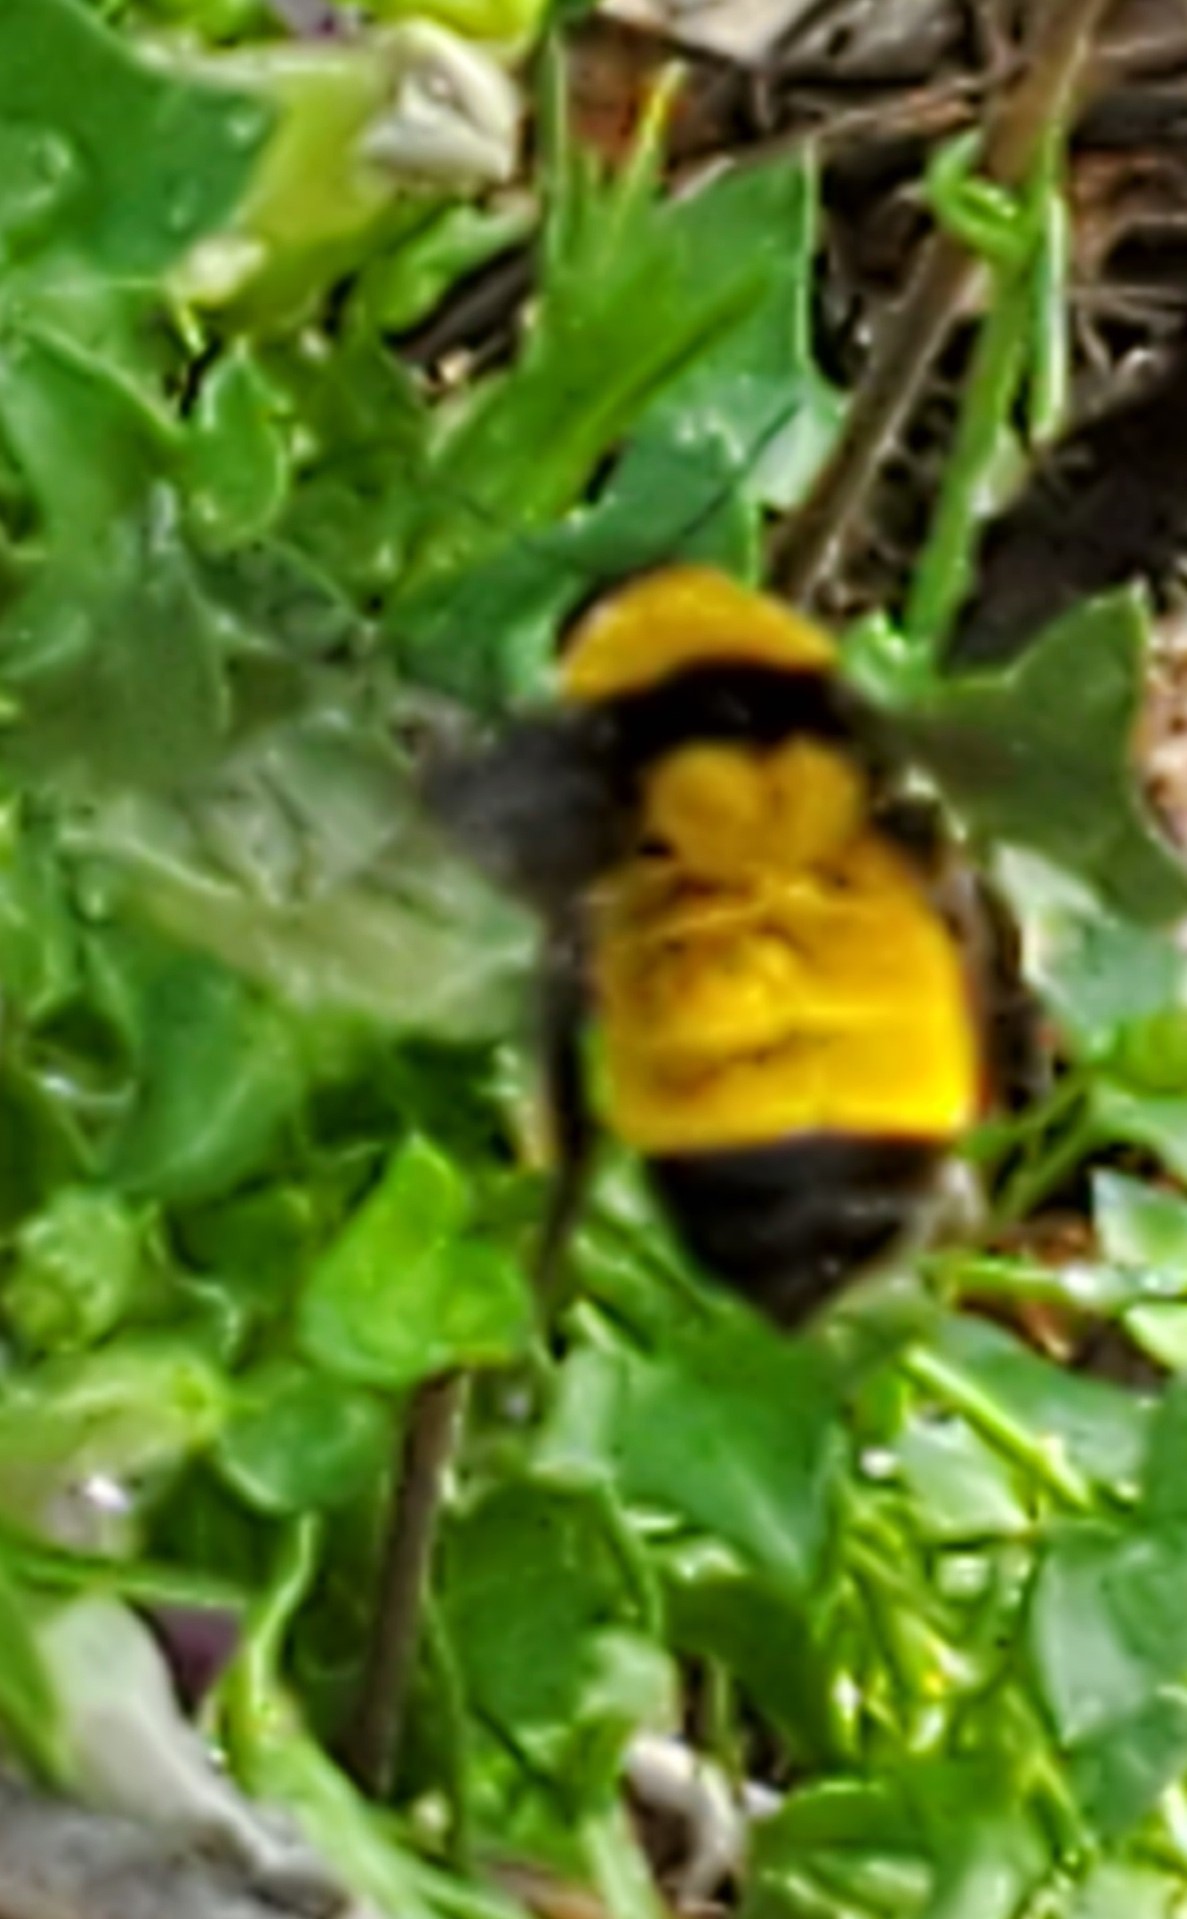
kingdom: Animalia
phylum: Arthropoda
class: Insecta
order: Hymenoptera
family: Apidae
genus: Bombus
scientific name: Bombus sonorus
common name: Sonoran bumble bee
